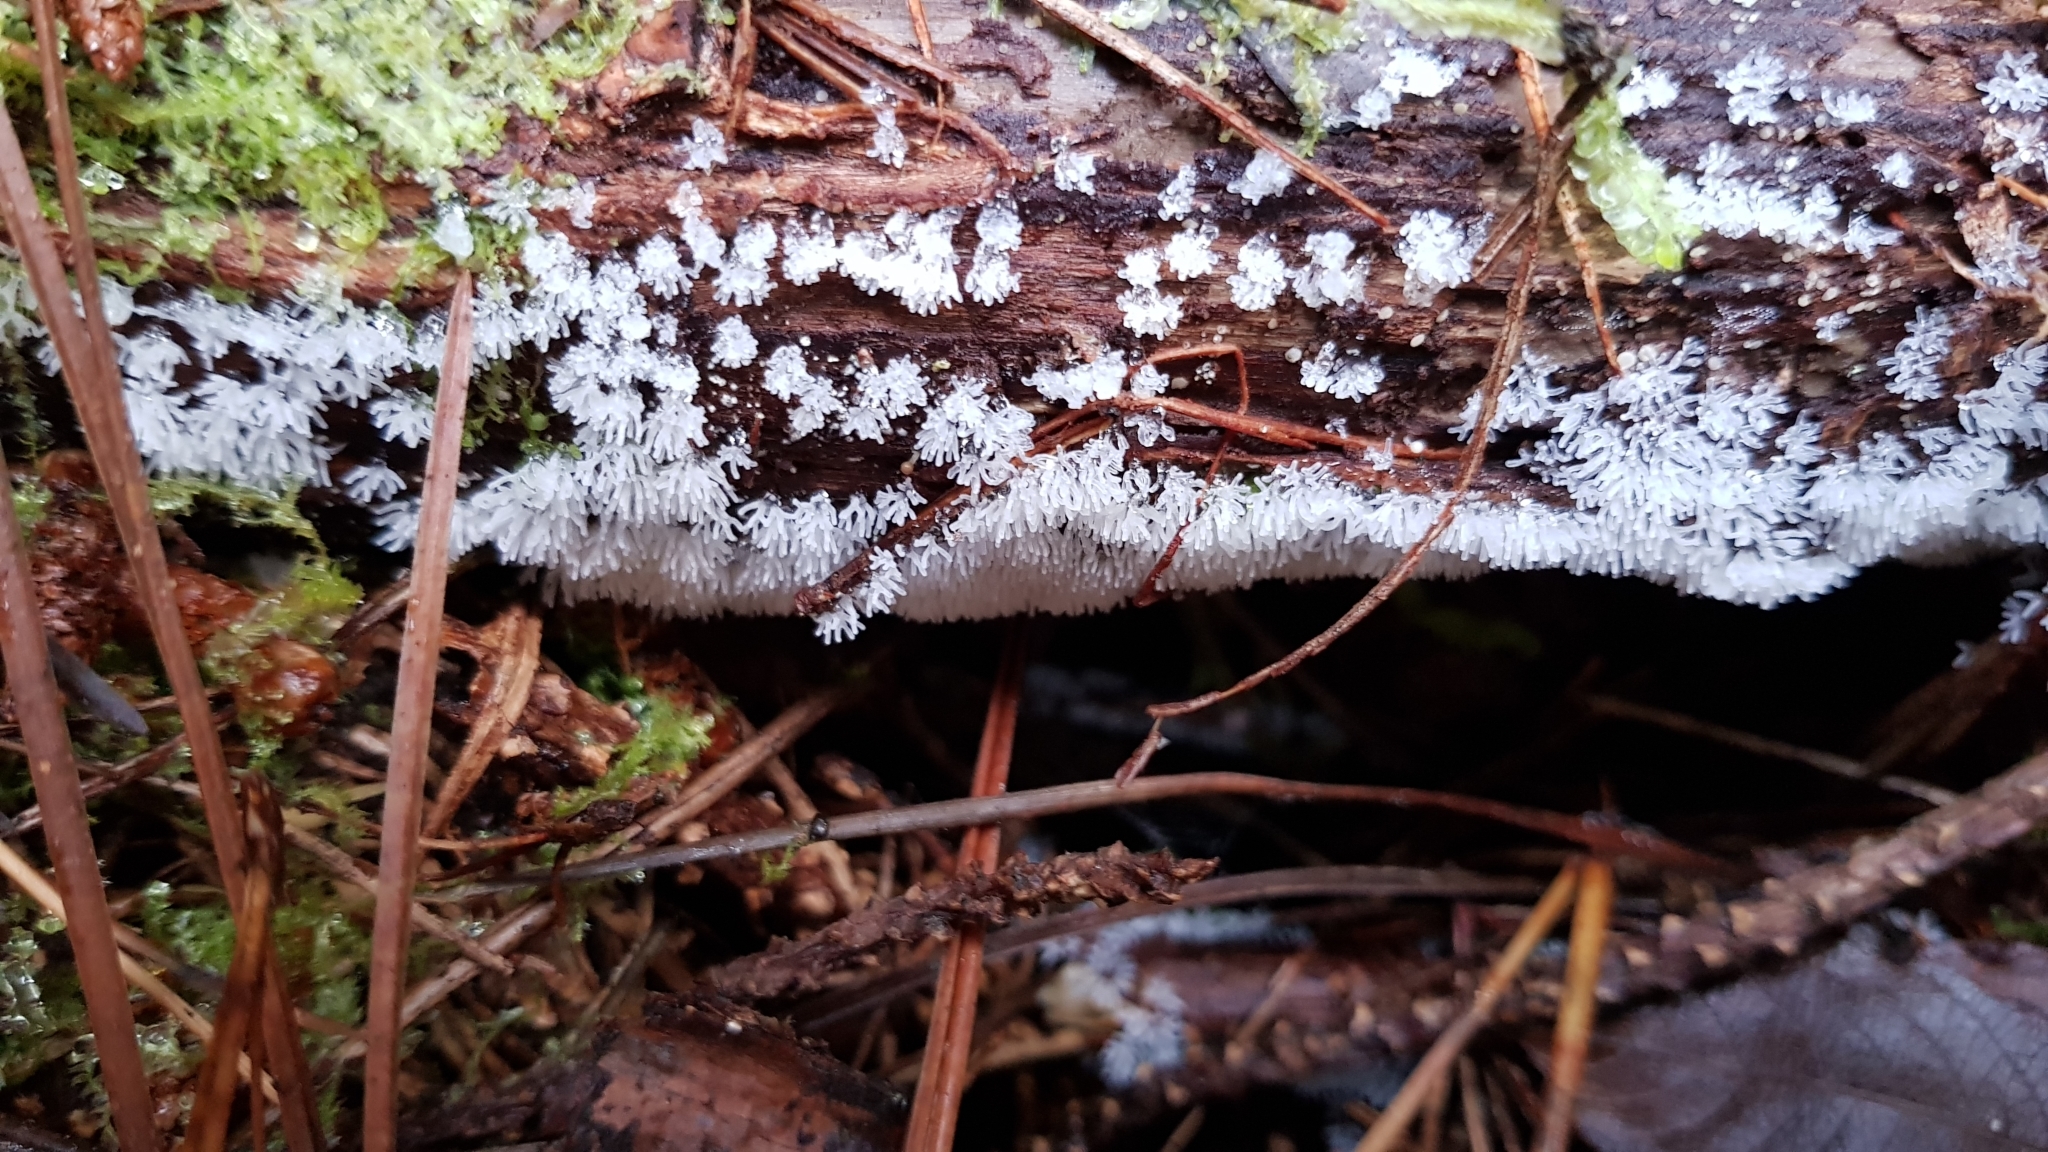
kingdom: Protozoa
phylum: Mycetozoa
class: Protosteliomycetes
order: Ceratiomyxales
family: Ceratiomyxaceae
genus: Ceratiomyxa
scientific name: Ceratiomyxa fruticulosa
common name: Honeycomb coral slime mold
